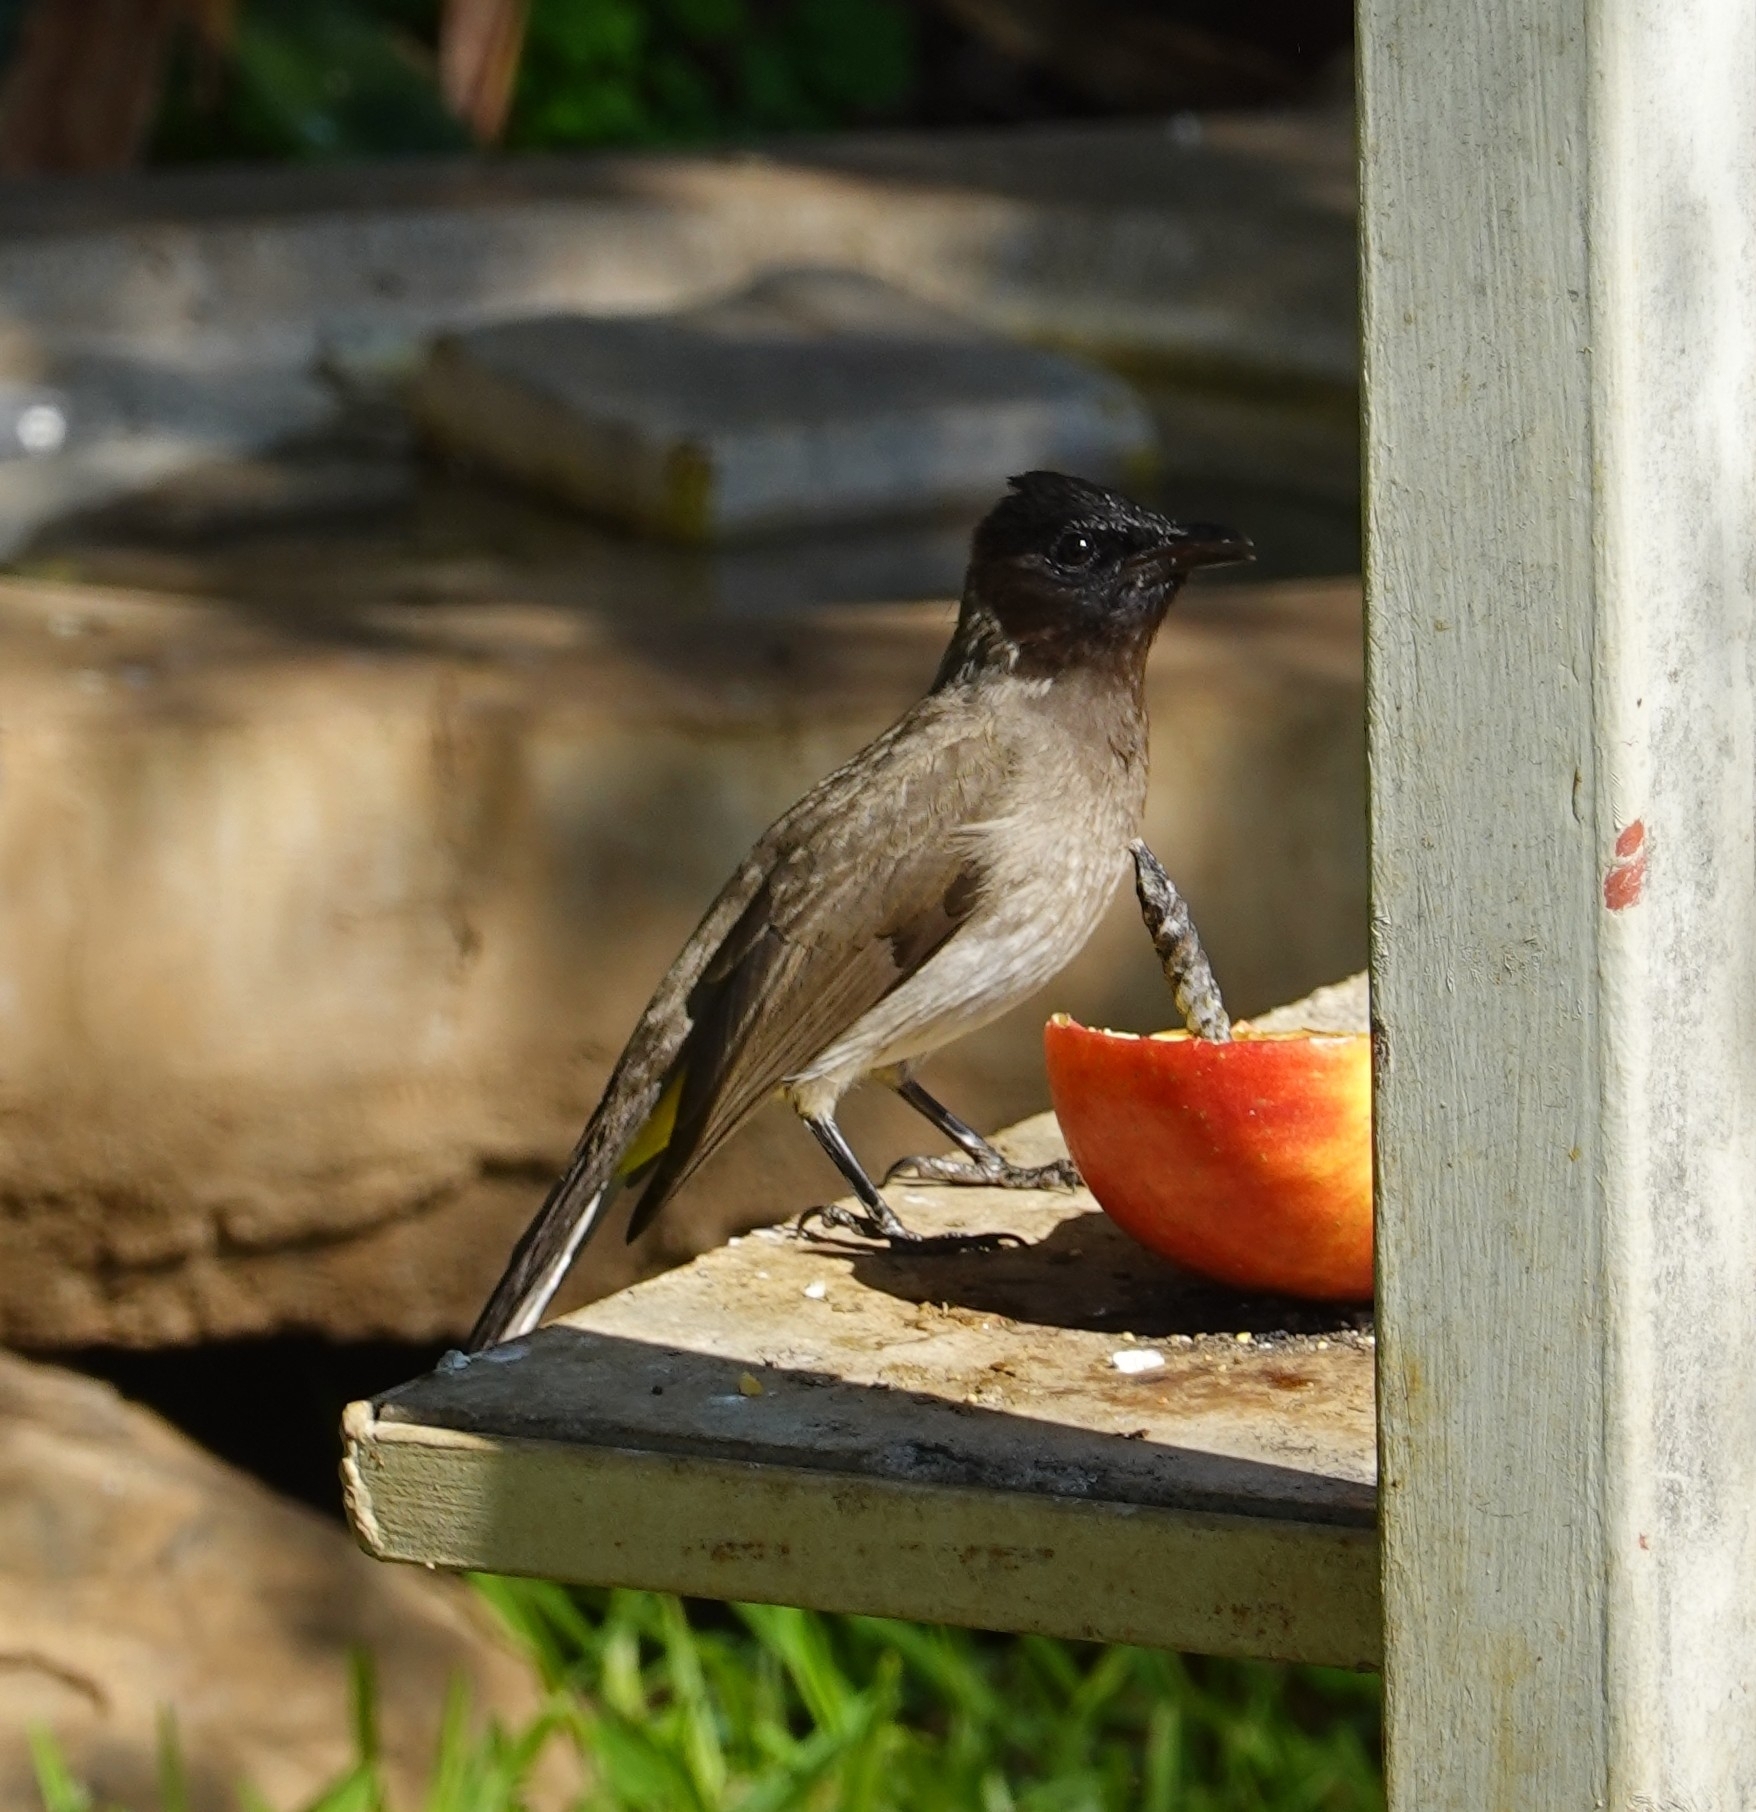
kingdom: Animalia
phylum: Chordata
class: Aves
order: Passeriformes
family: Pycnonotidae
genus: Pycnonotus
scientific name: Pycnonotus barbatus
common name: Common bulbul
